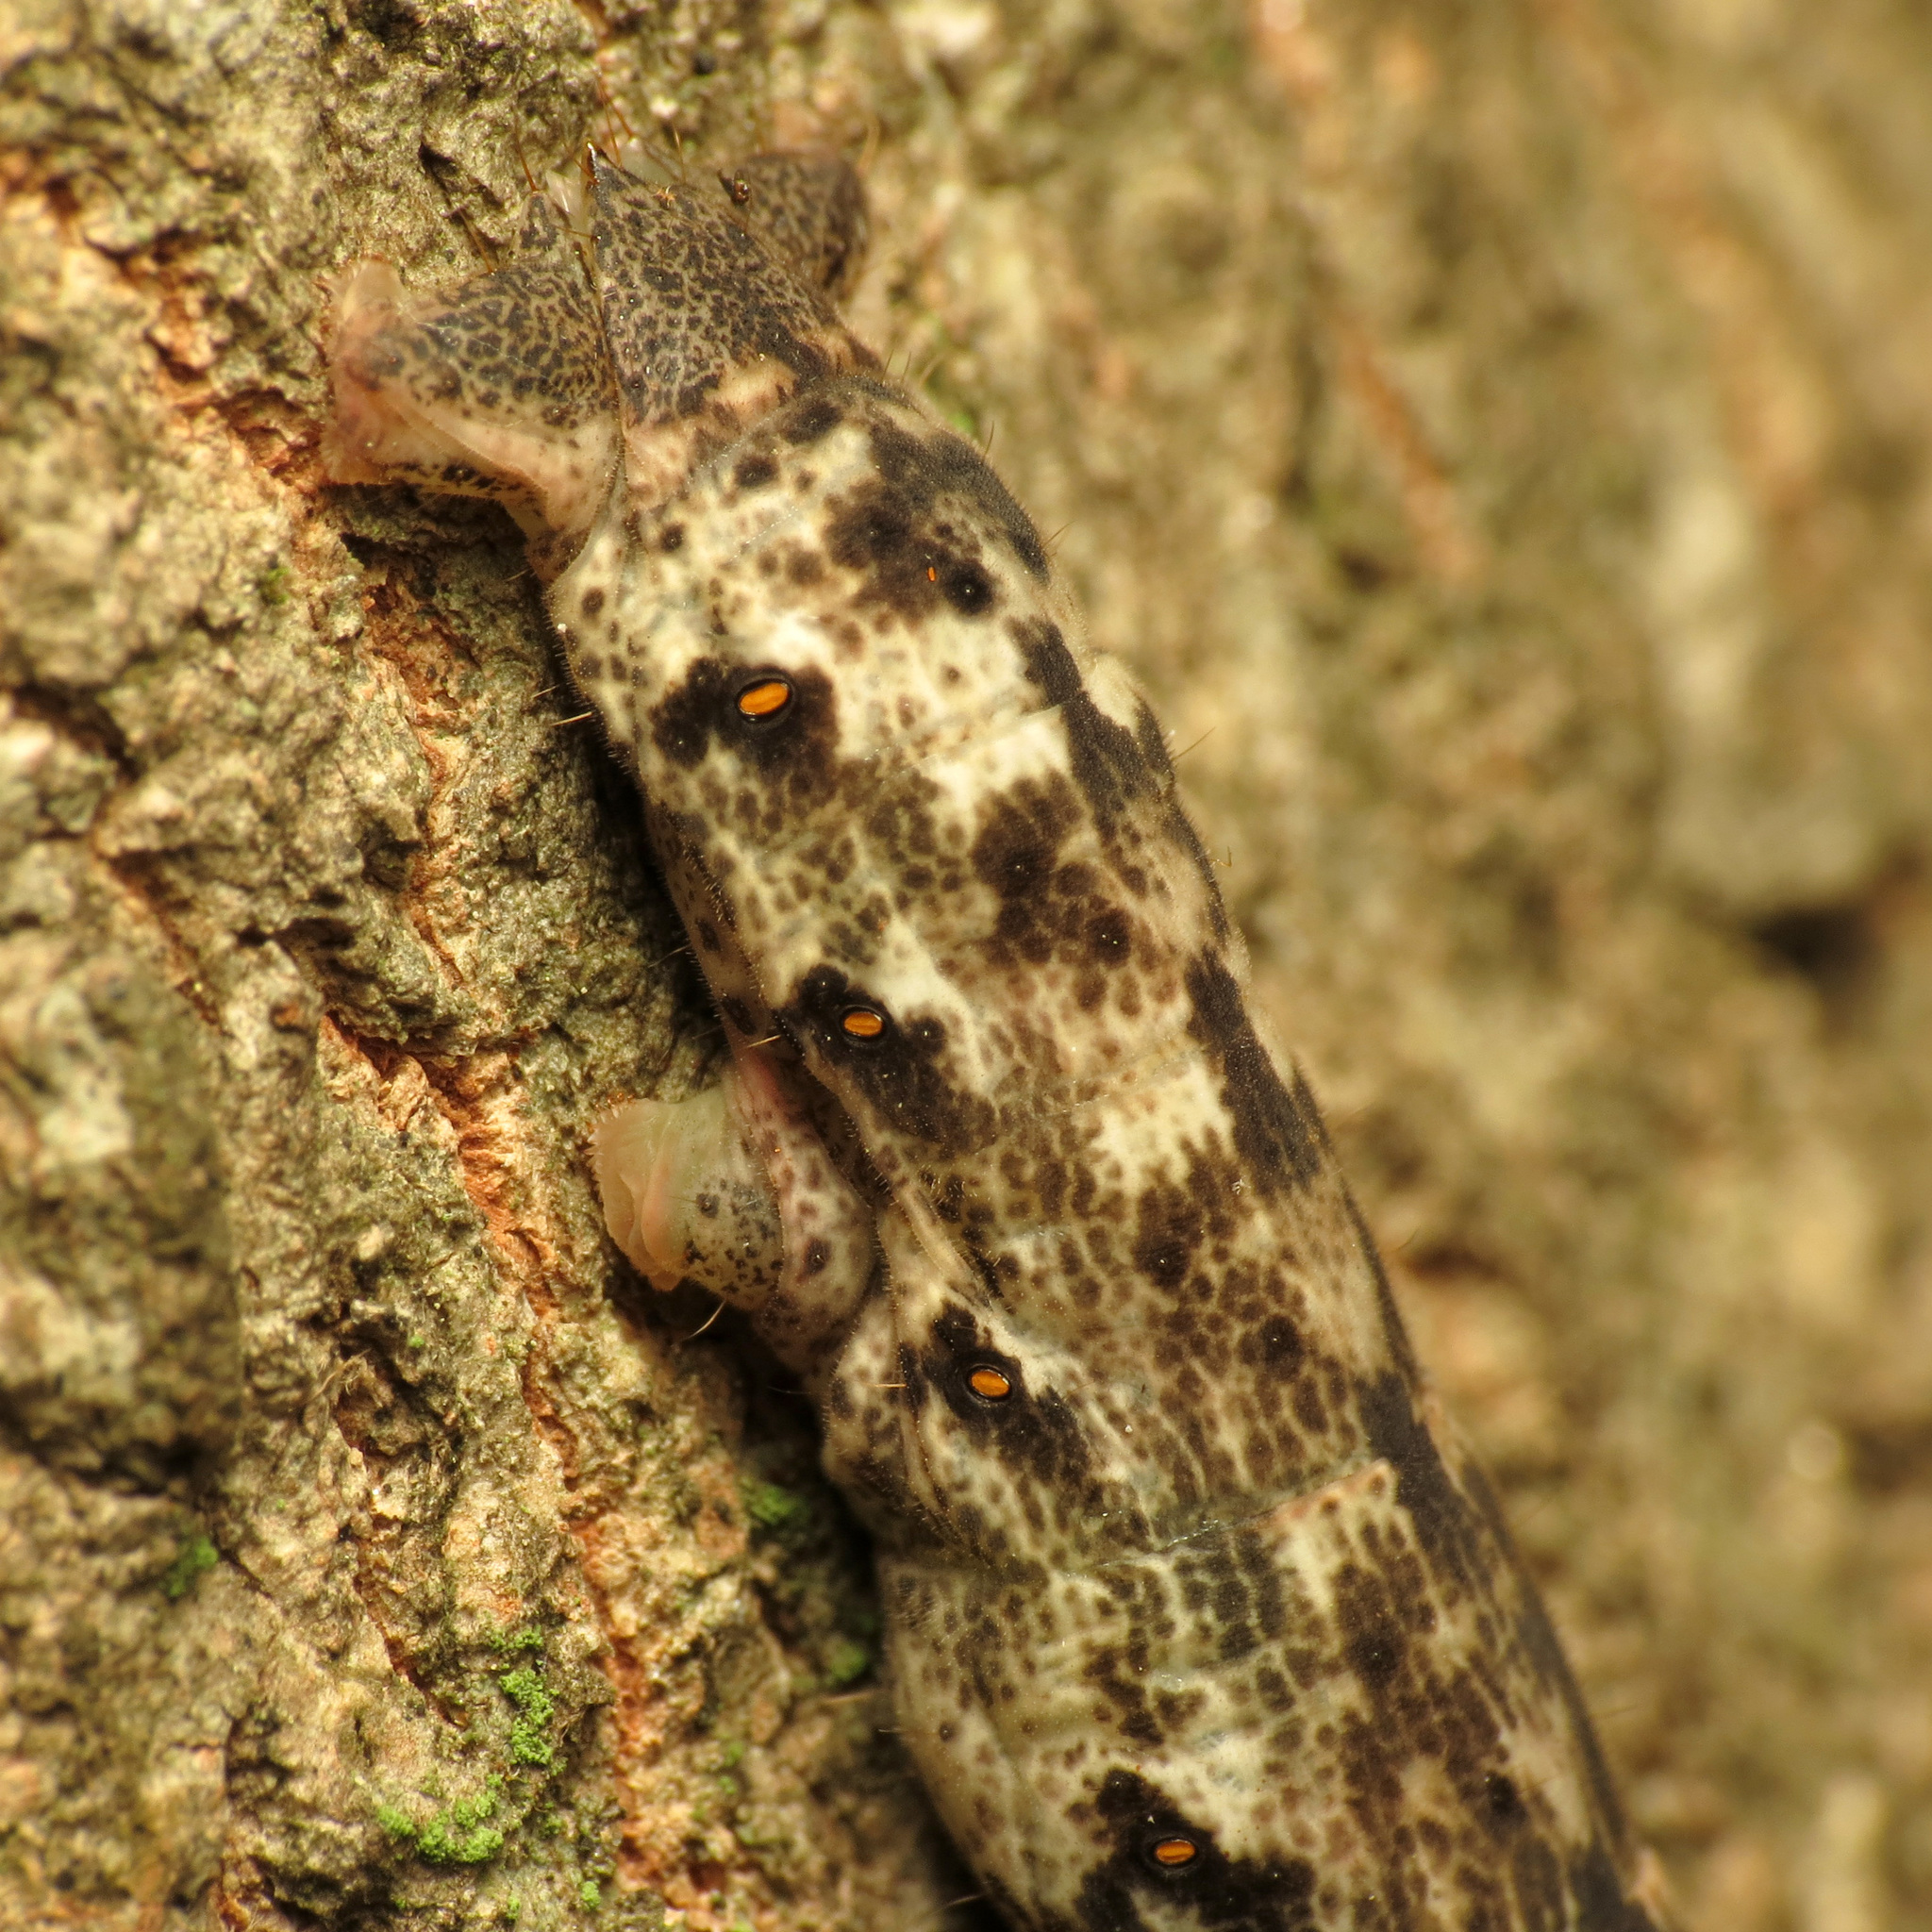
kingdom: Animalia
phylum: Arthropoda
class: Insecta
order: Lepidoptera
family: Geometridae
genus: Epimecis
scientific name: Epimecis hortaria
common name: Tulip-tree beauty
